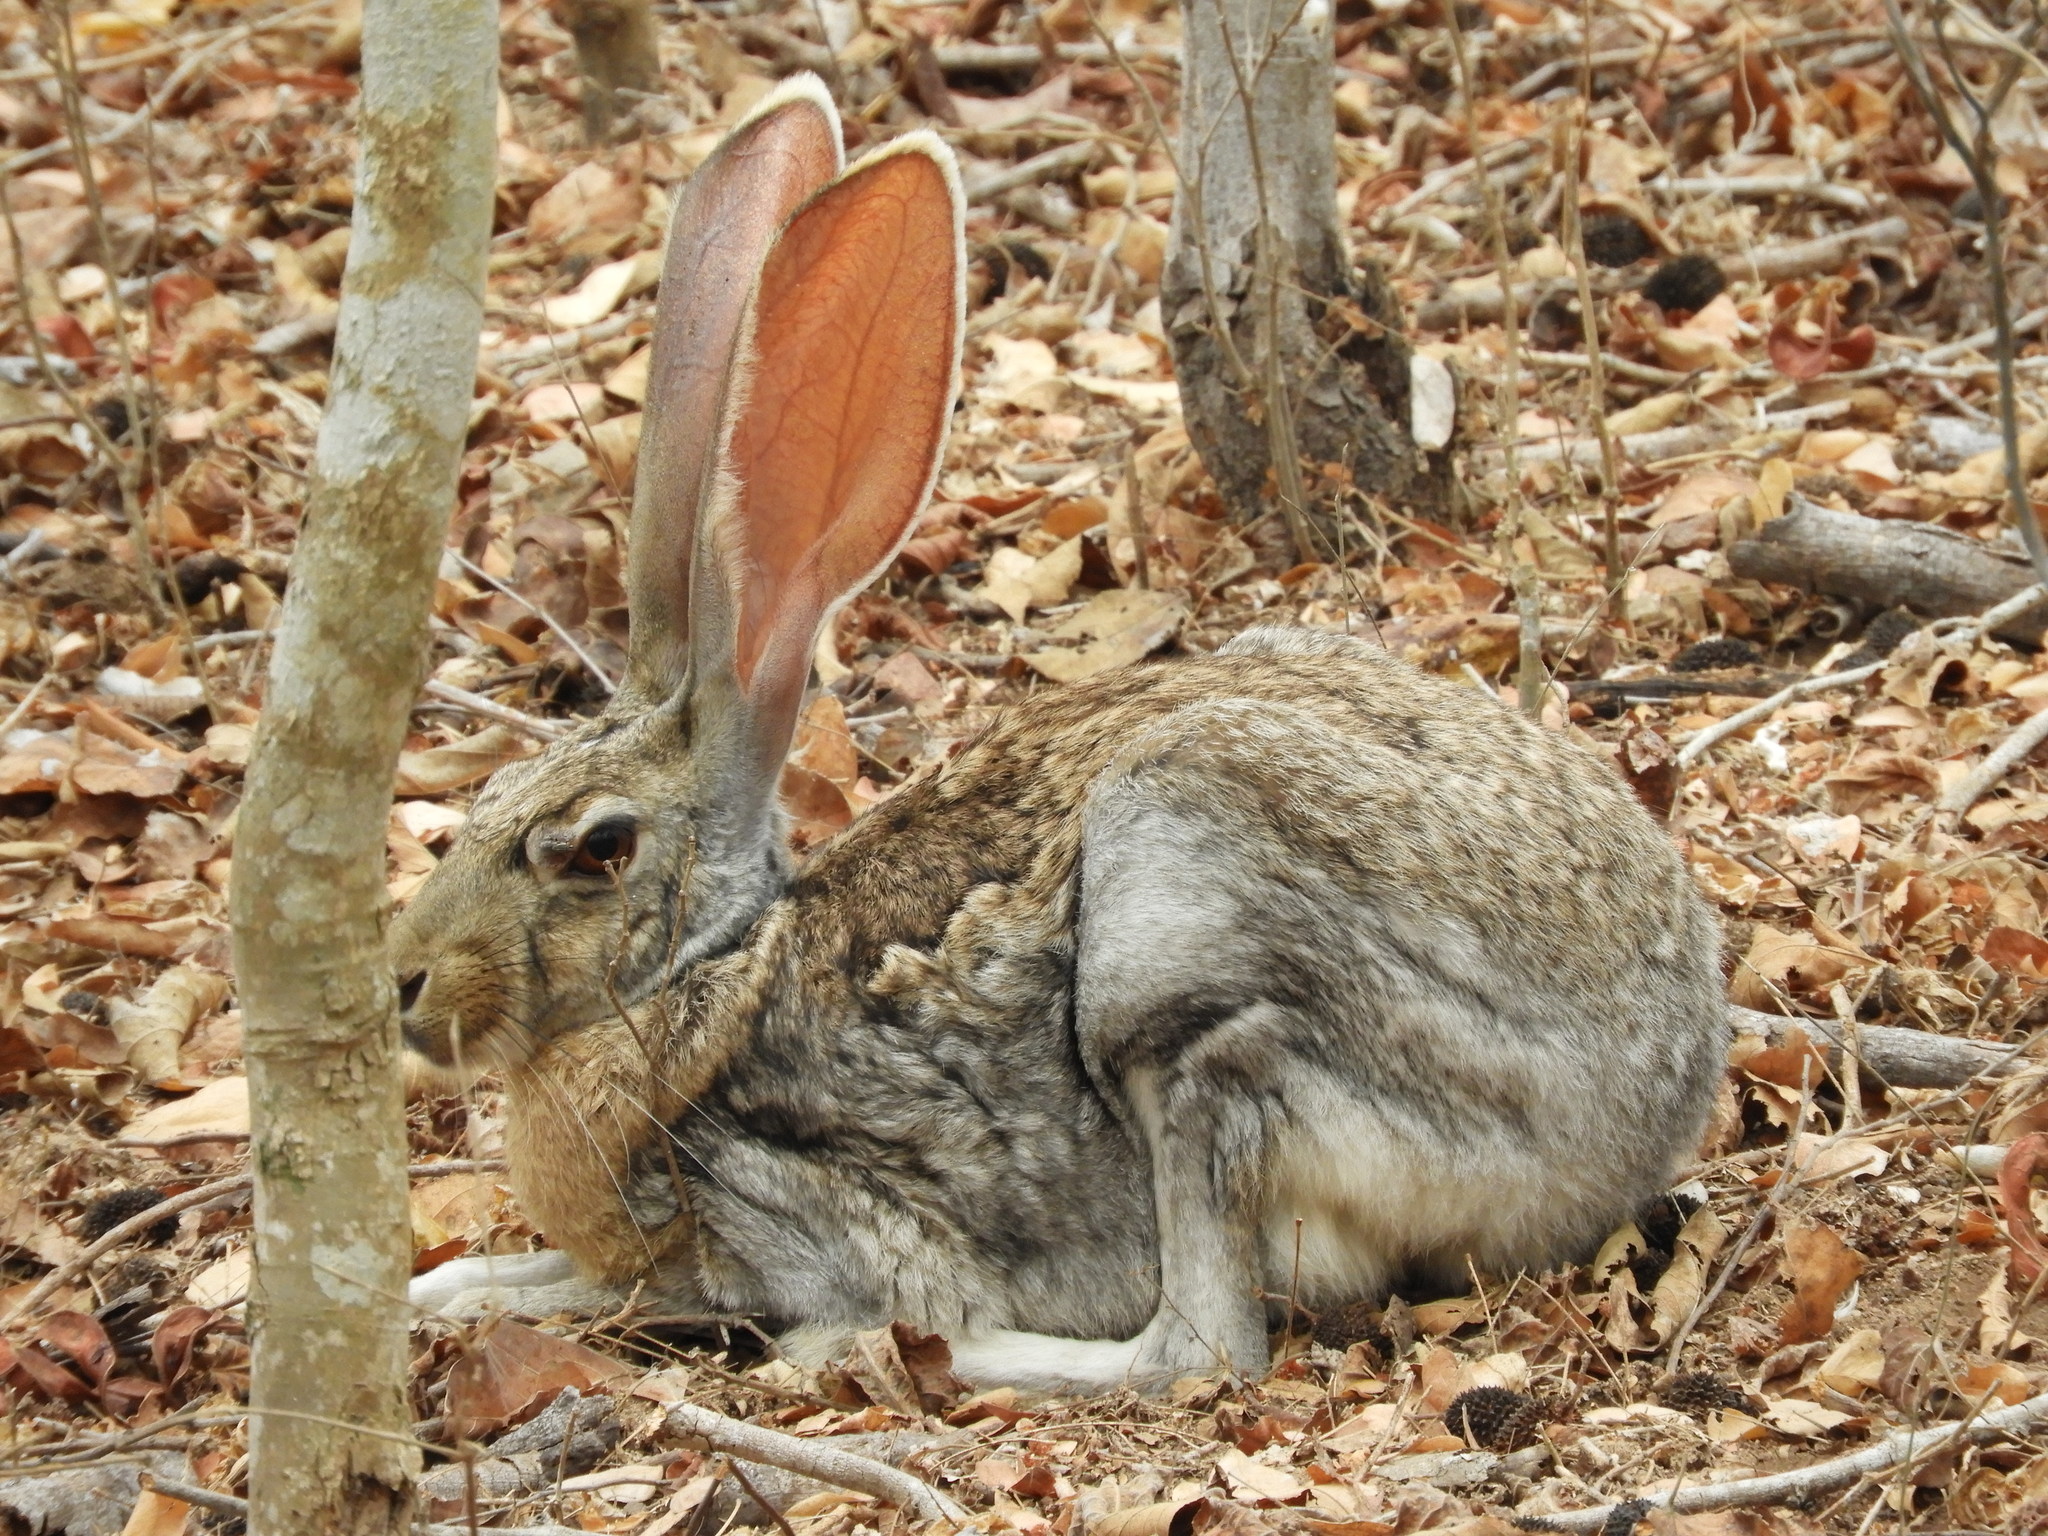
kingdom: Animalia
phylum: Chordata
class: Mammalia
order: Lagomorpha
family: Leporidae
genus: Lepus
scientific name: Lepus alleni
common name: Antelope jackrabbit
